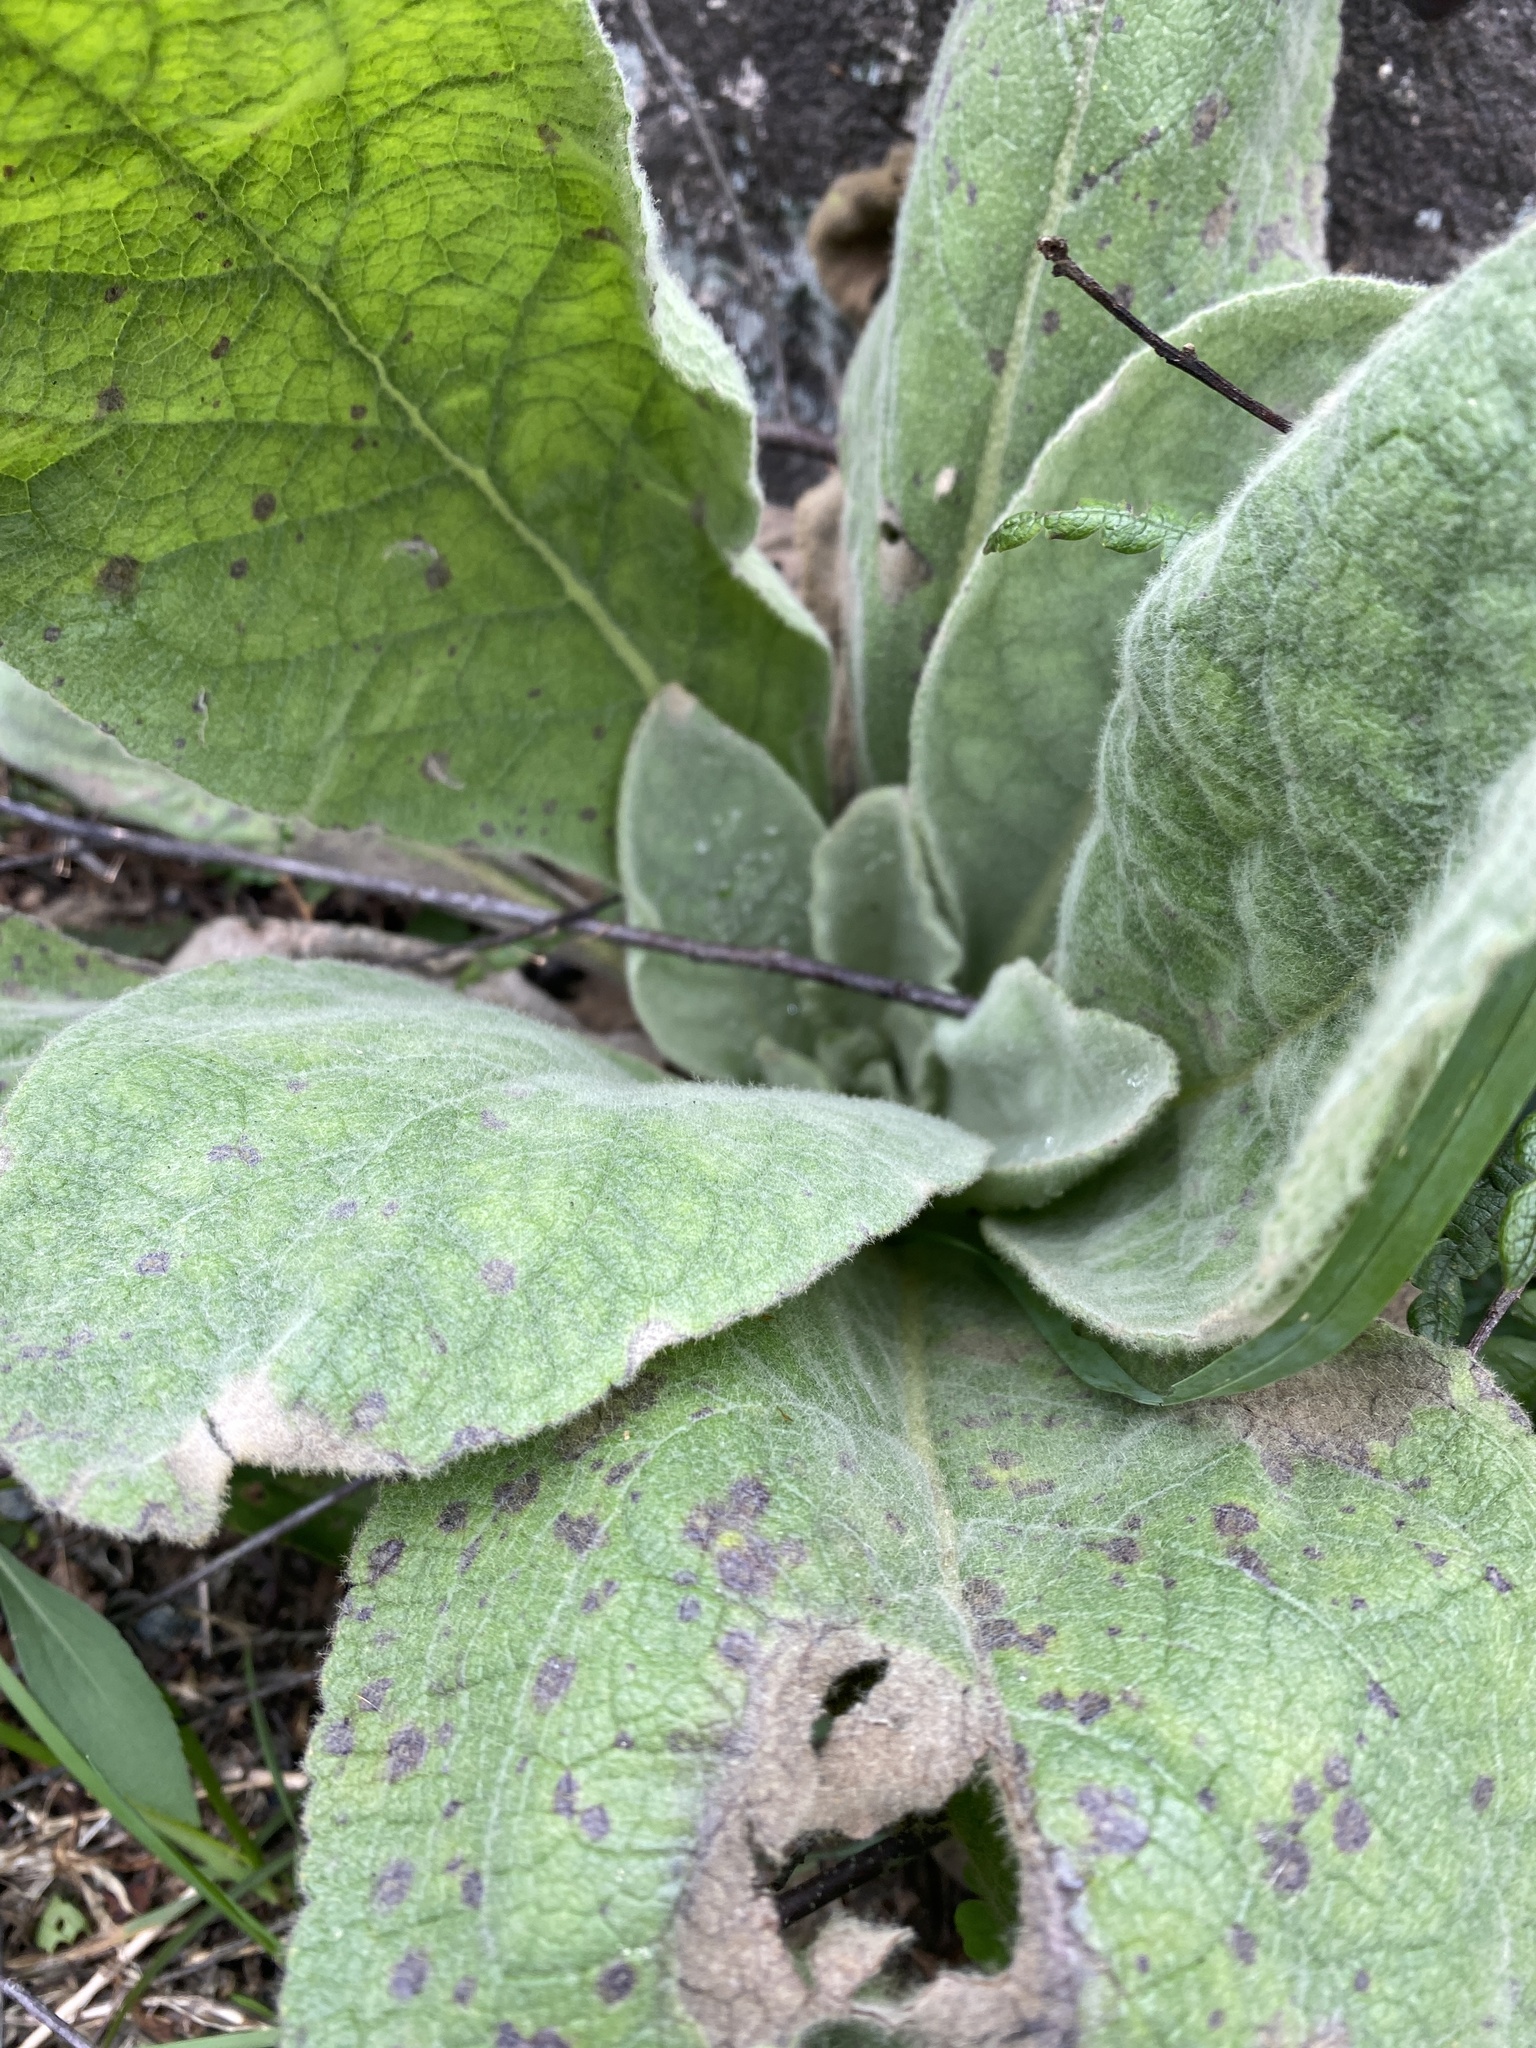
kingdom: Plantae
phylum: Tracheophyta
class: Magnoliopsida
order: Lamiales
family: Scrophulariaceae
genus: Verbascum
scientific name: Verbascum thapsus
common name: Common mullein
